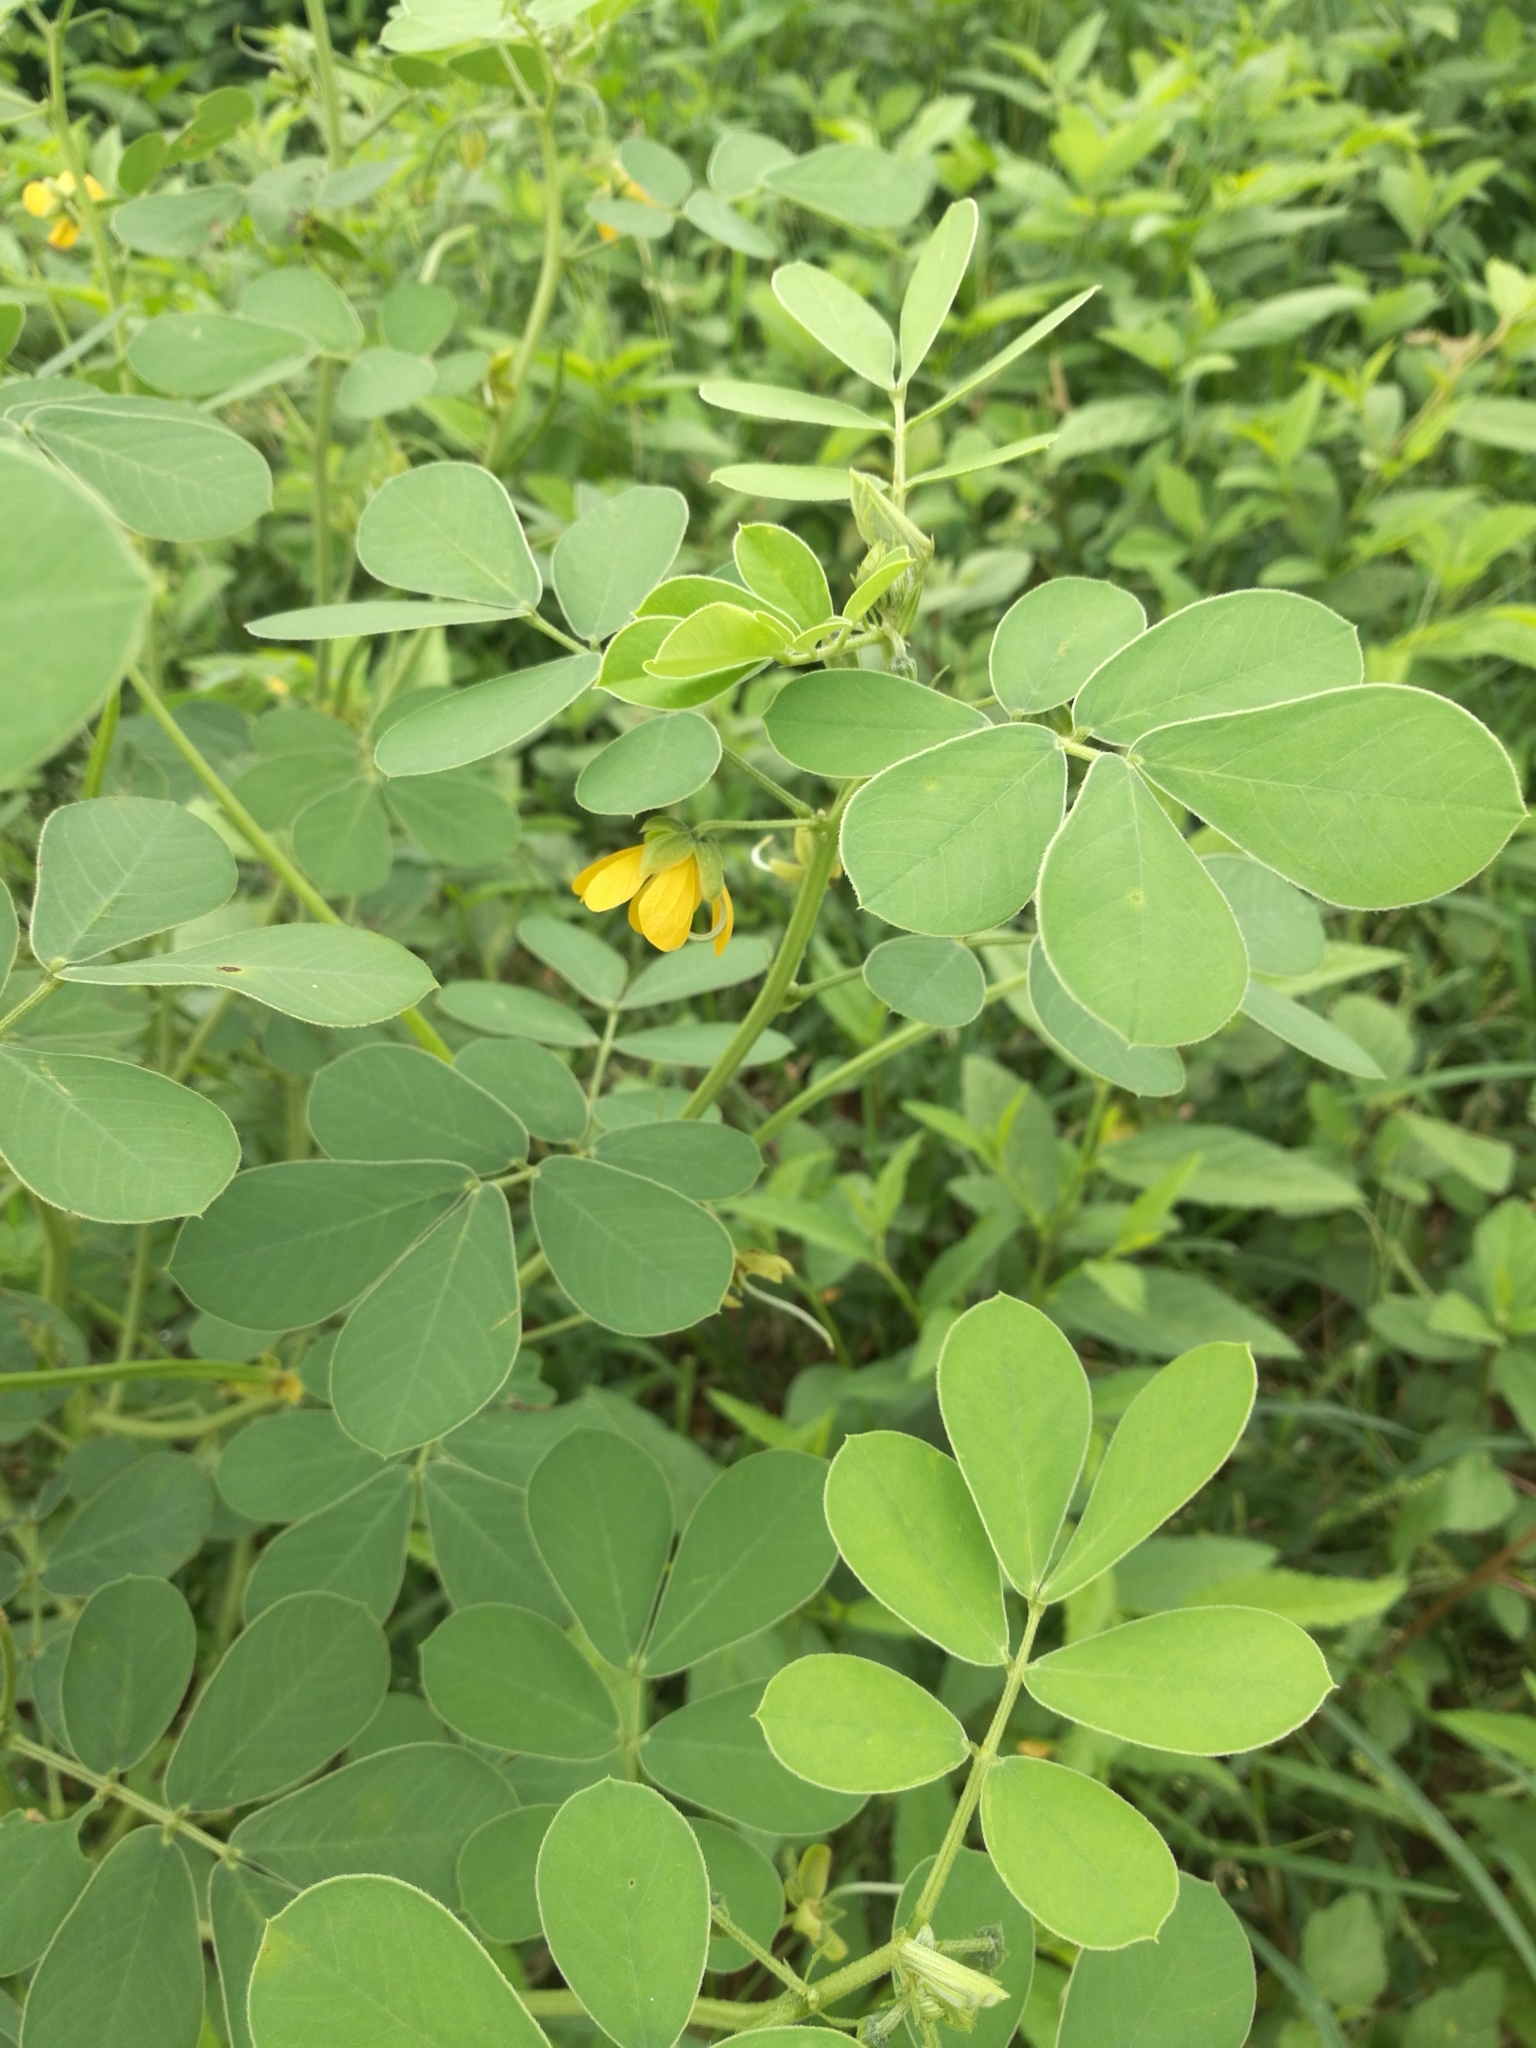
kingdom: Plantae
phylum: Tracheophyta
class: Magnoliopsida
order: Fabales
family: Fabaceae
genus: Senna
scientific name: Senna obtusifolia
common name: Java-bean
